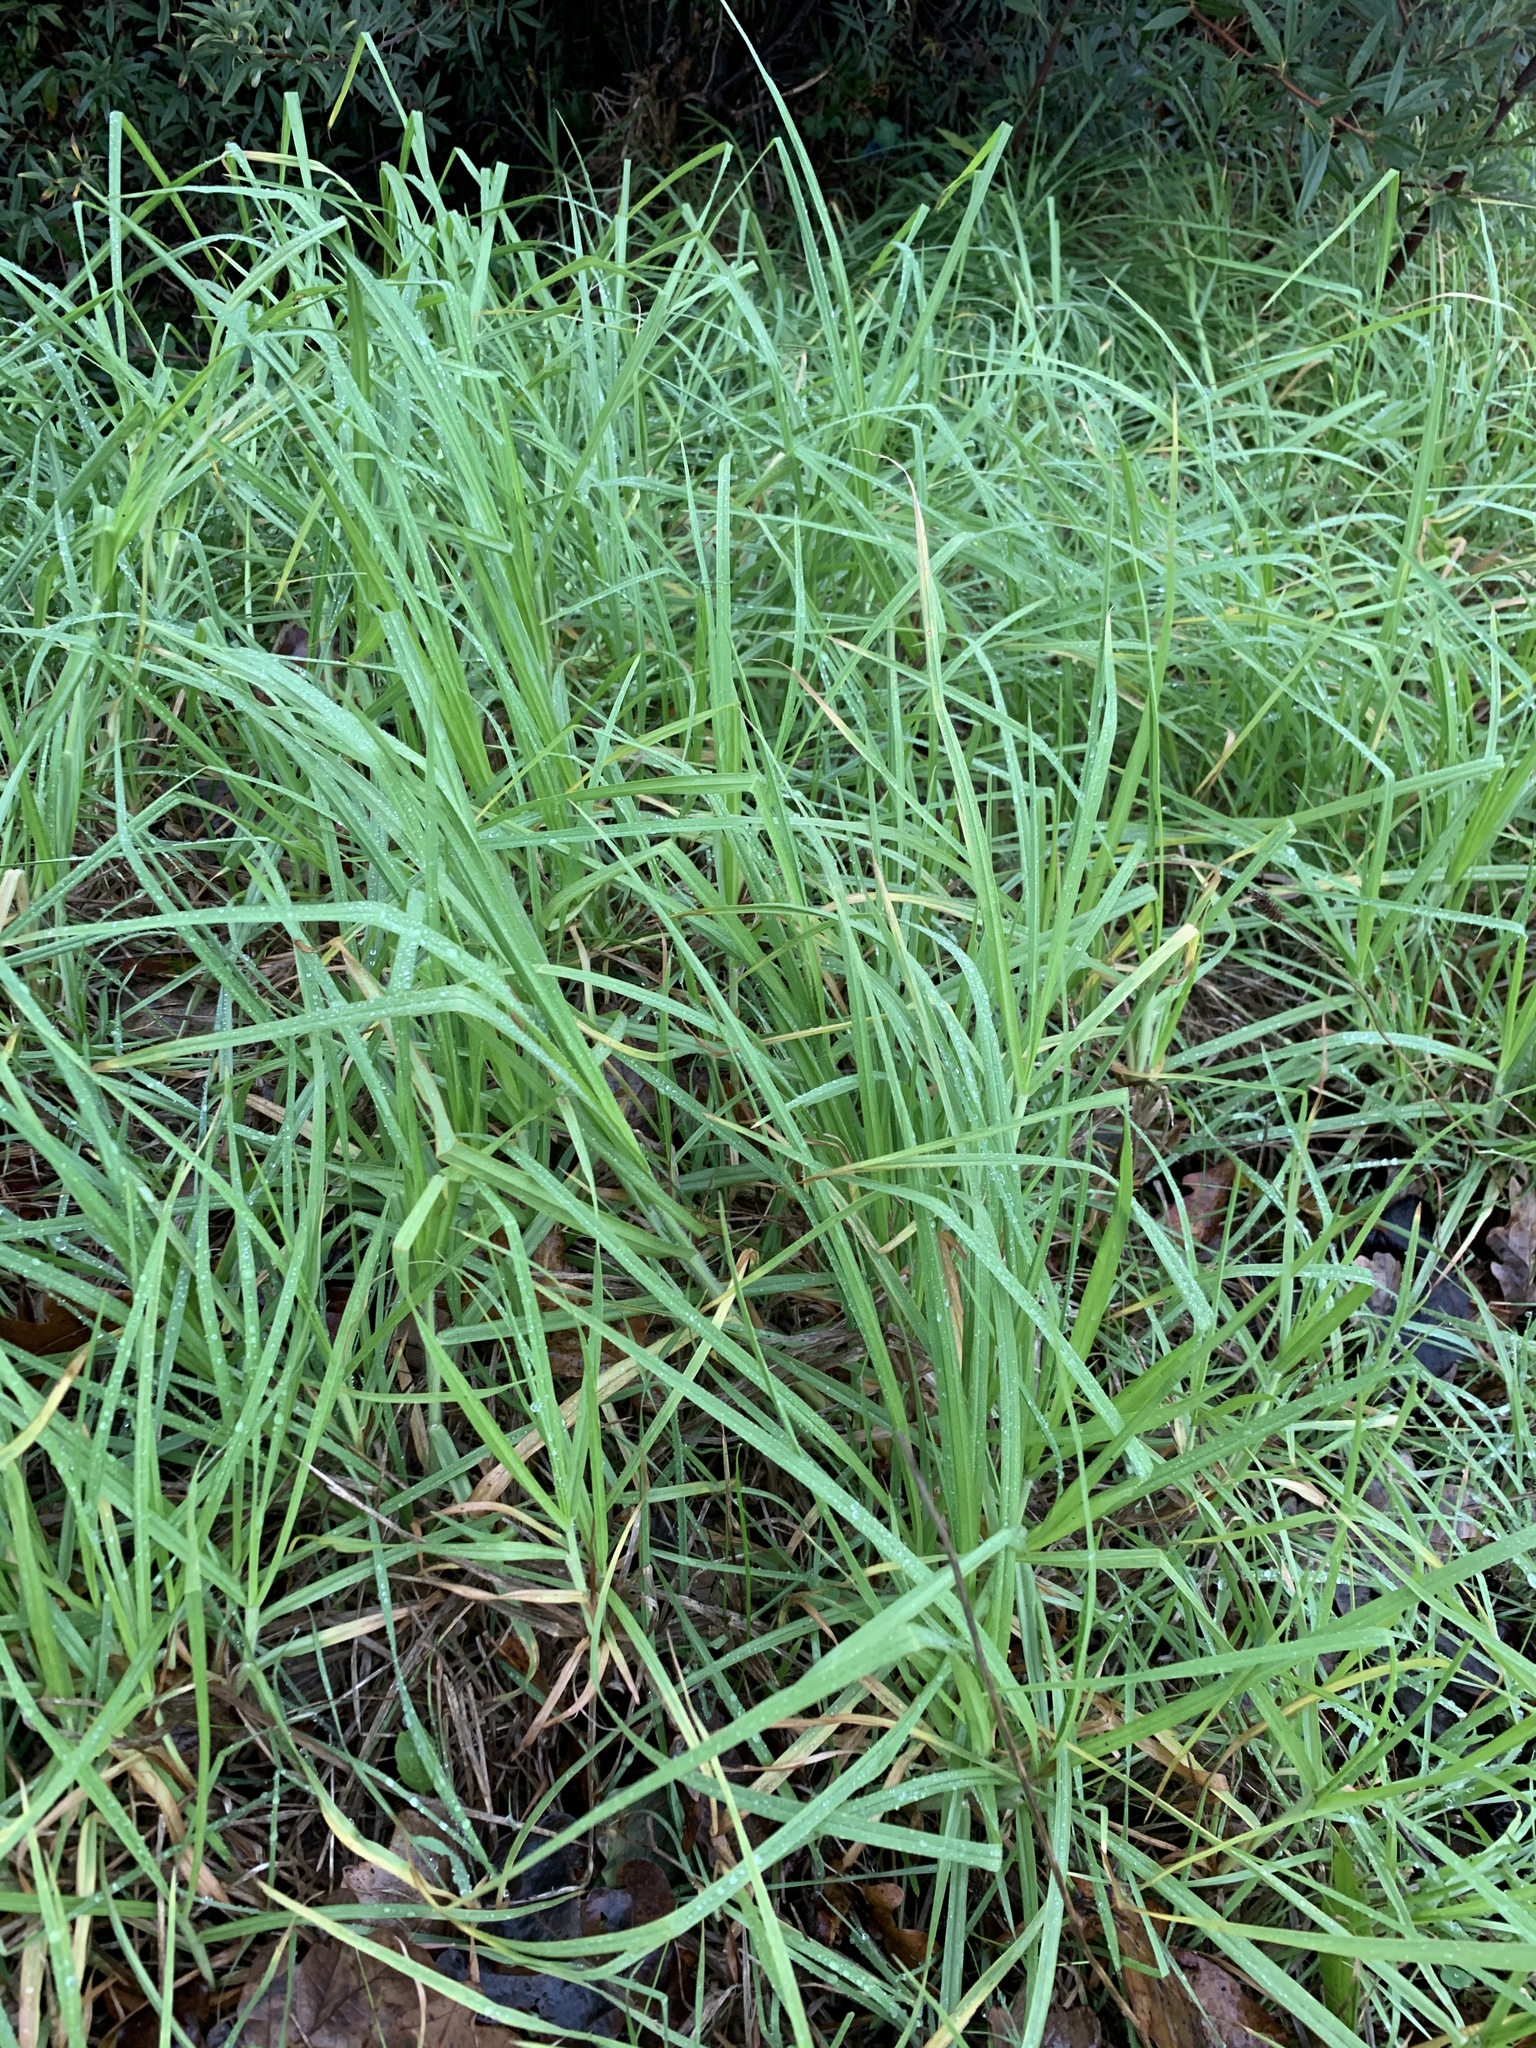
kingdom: Plantae
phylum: Tracheophyta
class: Liliopsida
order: Poales
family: Poaceae
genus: Cenchrus
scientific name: Cenchrus clandestinus
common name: Kikuyugrass
